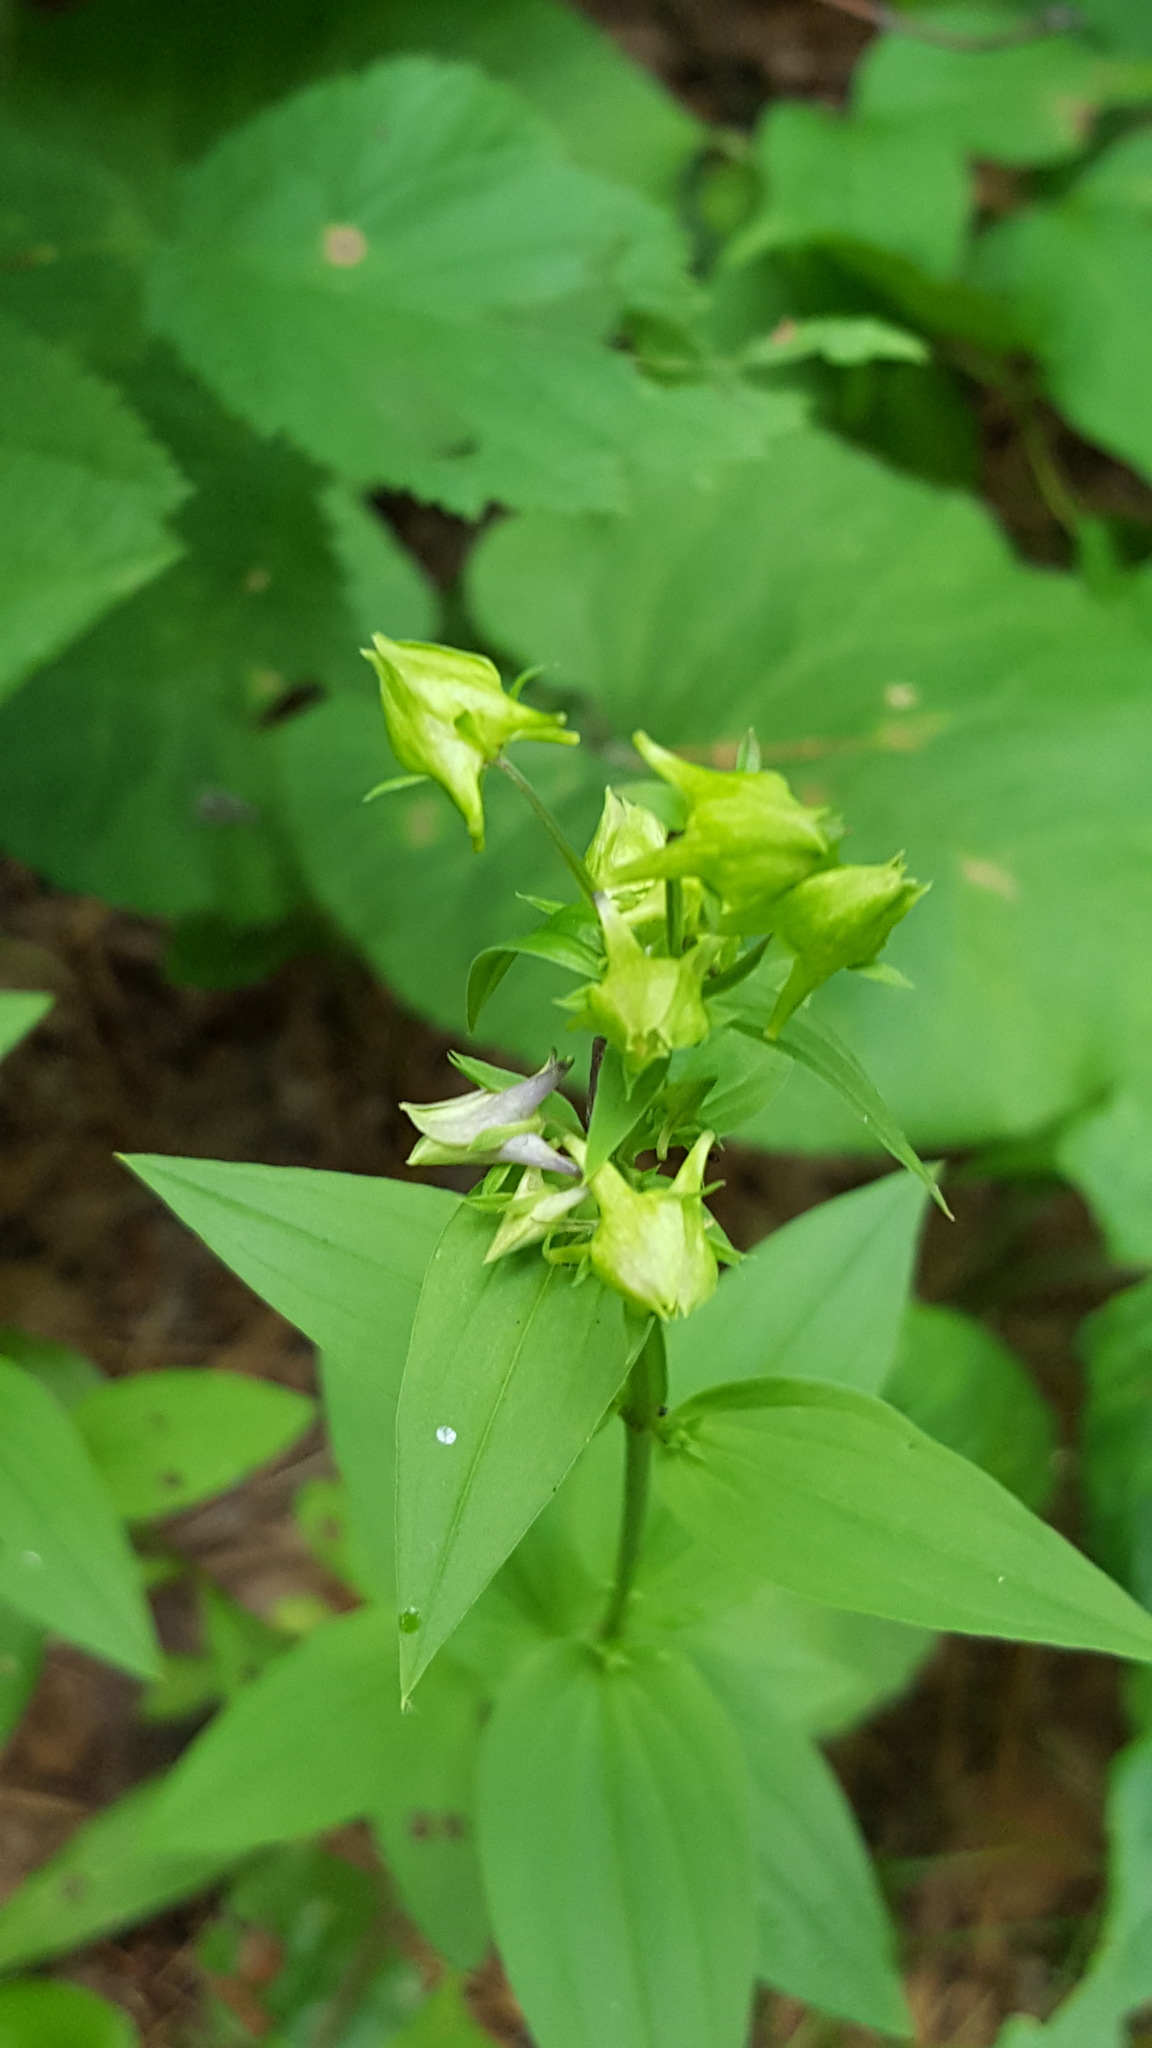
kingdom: Plantae
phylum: Tracheophyta
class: Magnoliopsida
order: Gentianales
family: Gentianaceae
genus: Halenia
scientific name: Halenia deflexa
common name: American spurred gentian
